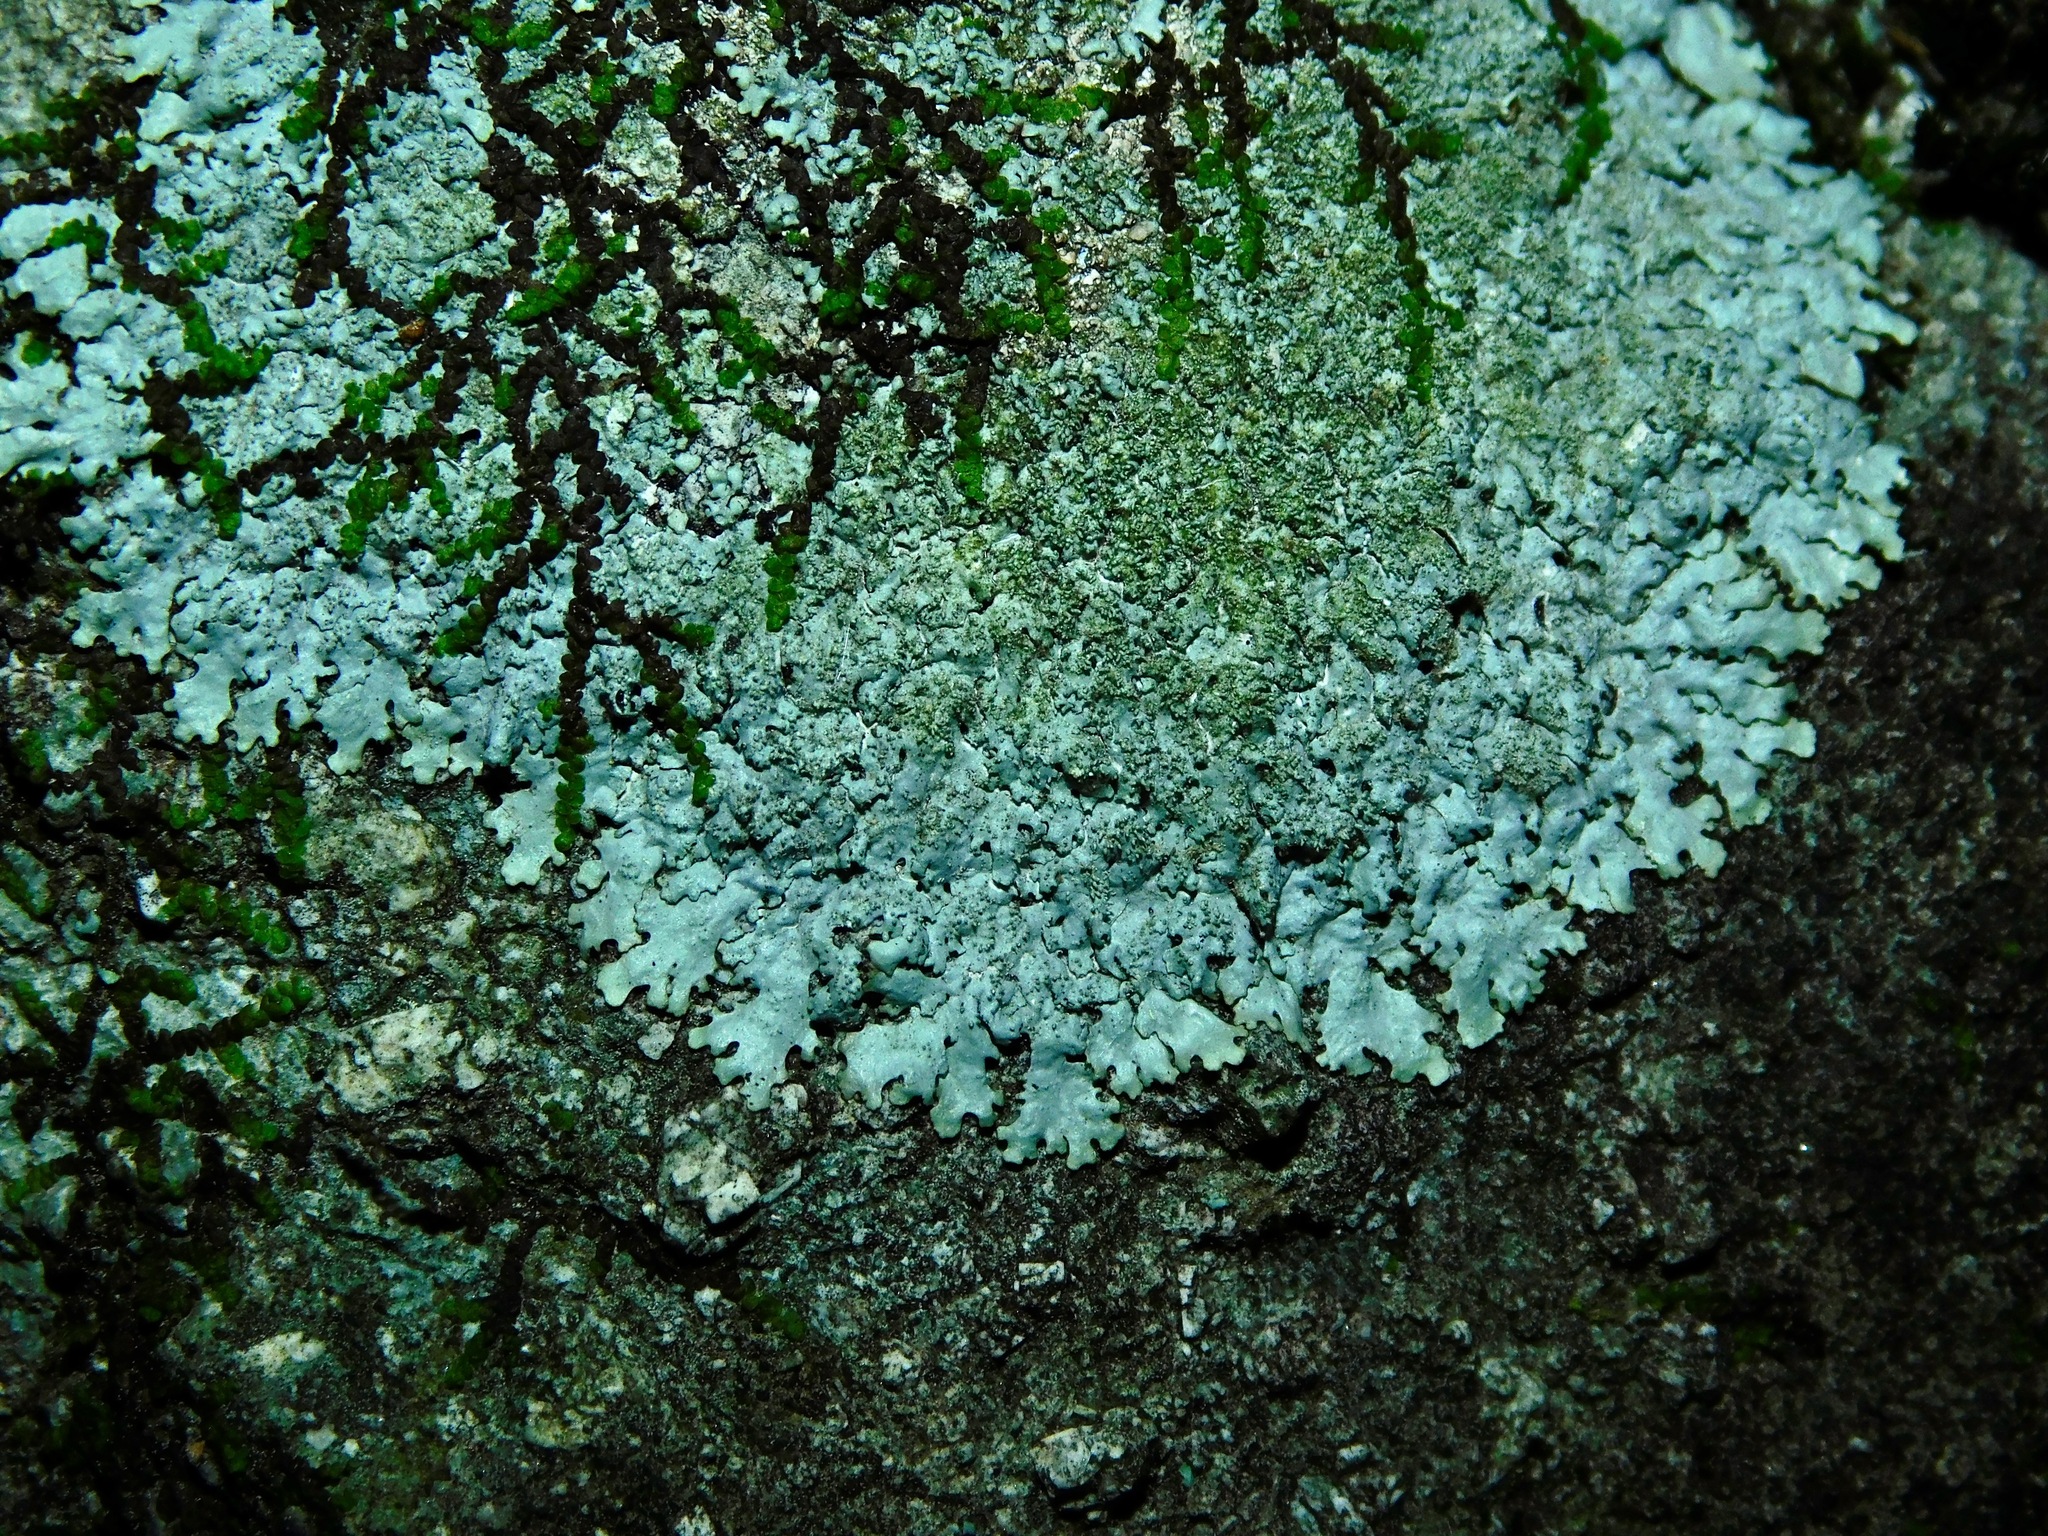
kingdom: Fungi
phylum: Ascomycota
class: Lecanoromycetes
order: Lecanorales
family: Parmeliaceae
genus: Myelochroa
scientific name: Myelochroa aurulenta
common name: Powdery axil-bristle lichen
